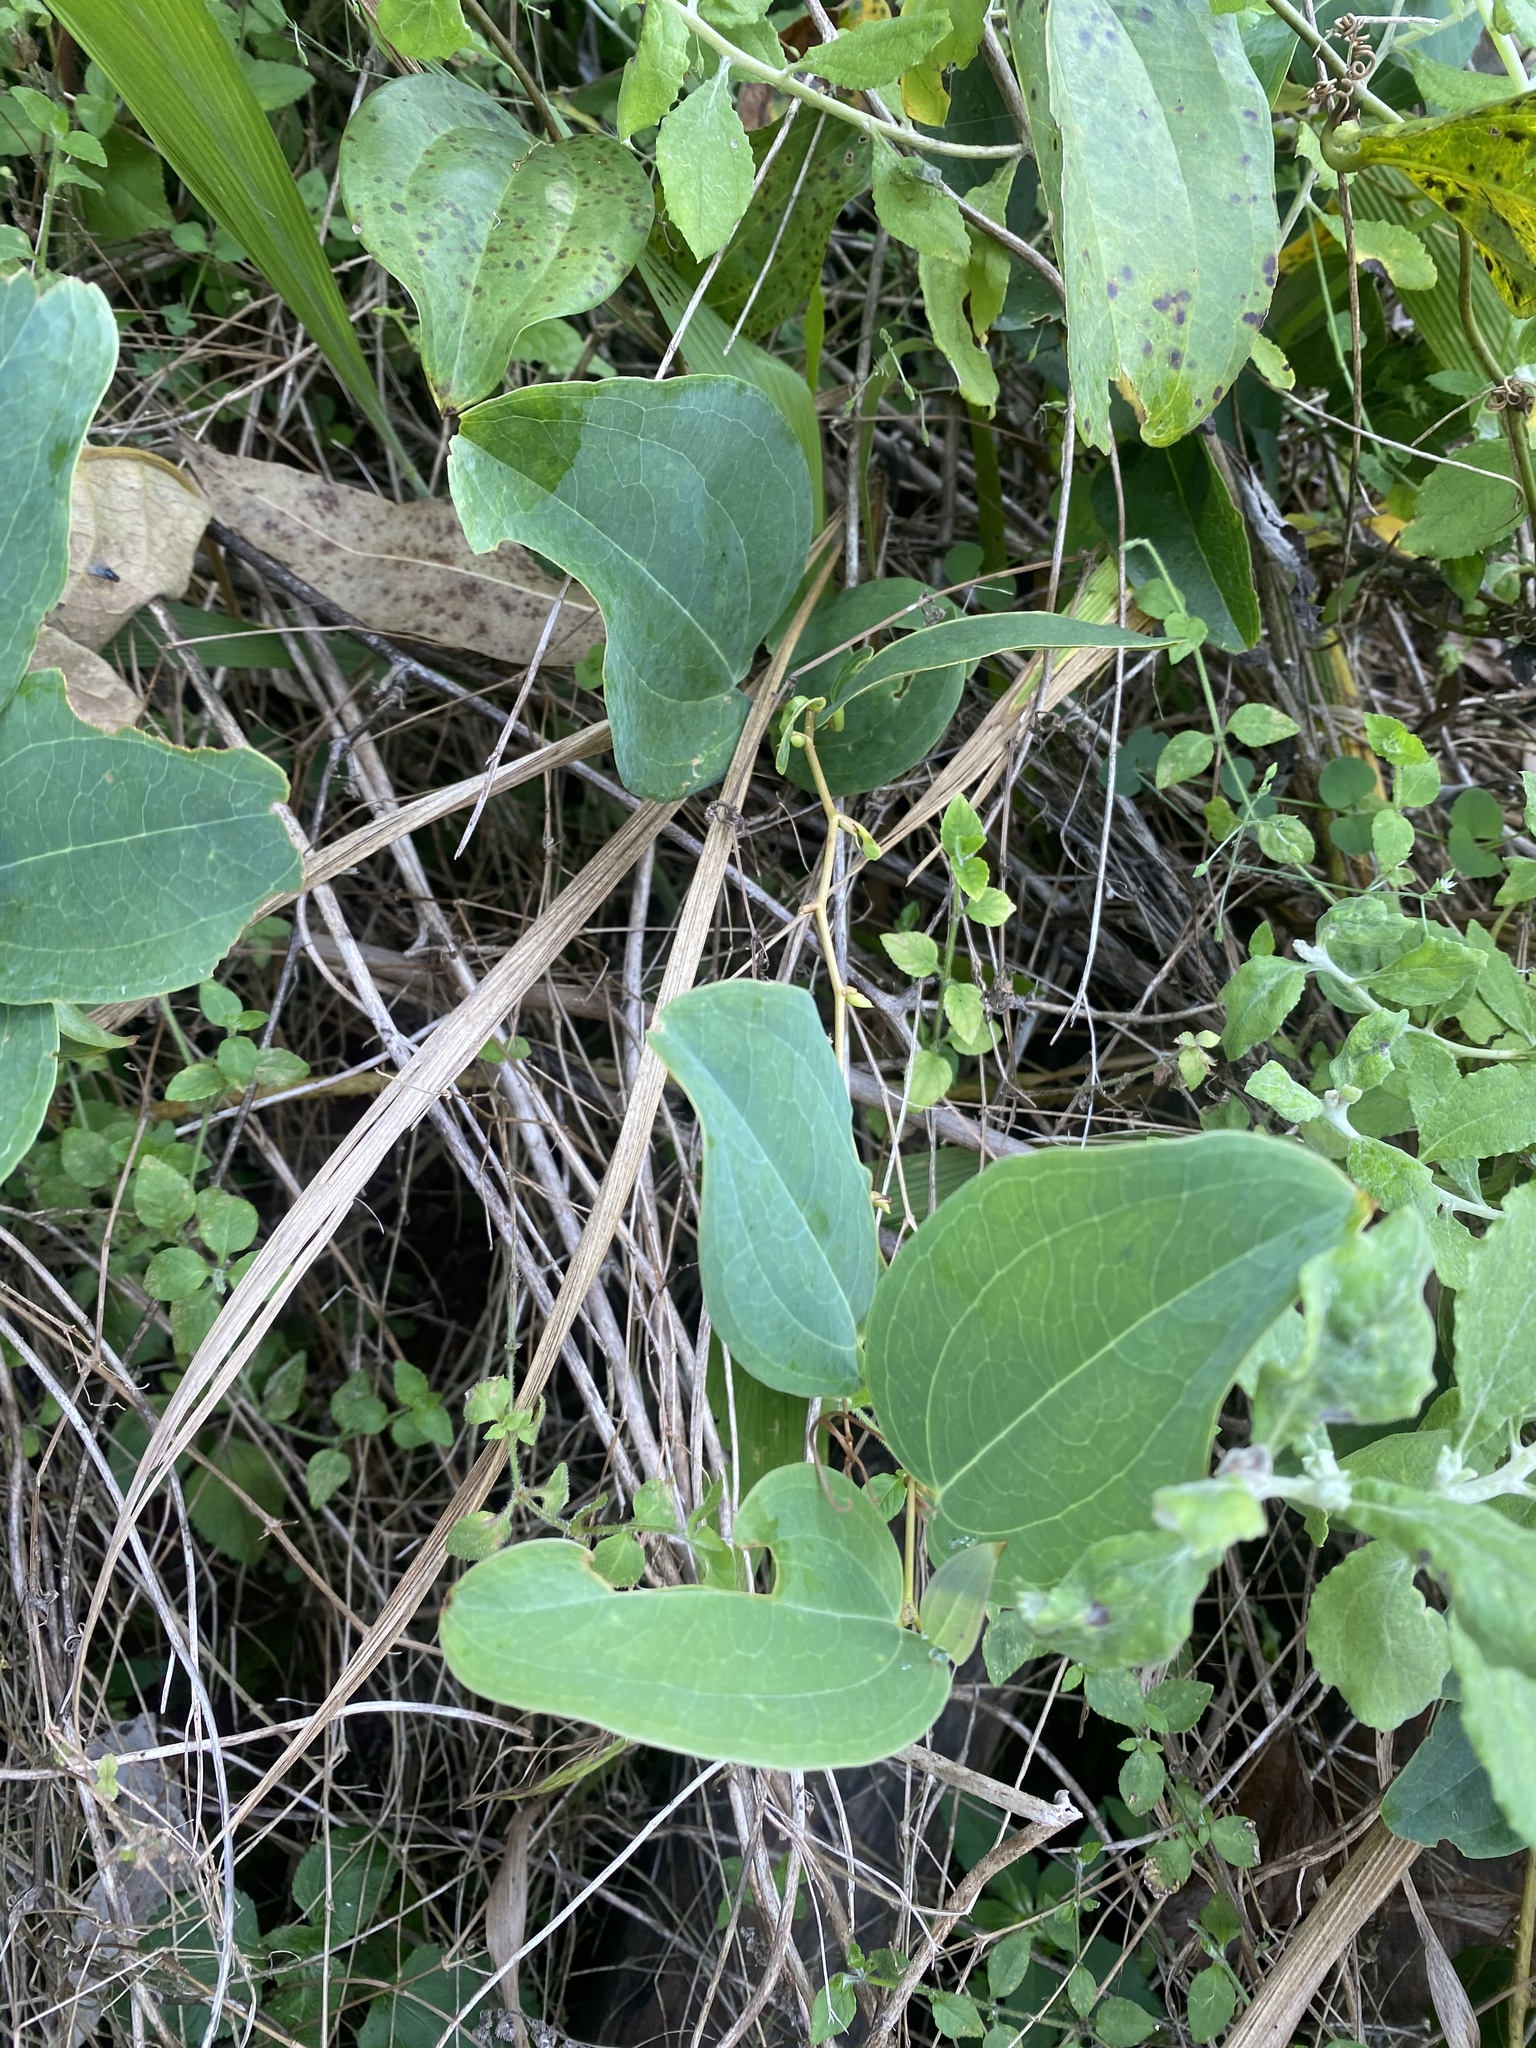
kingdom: Plantae
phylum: Tracheophyta
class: Liliopsida
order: Liliales
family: Smilacaceae
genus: Smilax
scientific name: Smilax anceps
